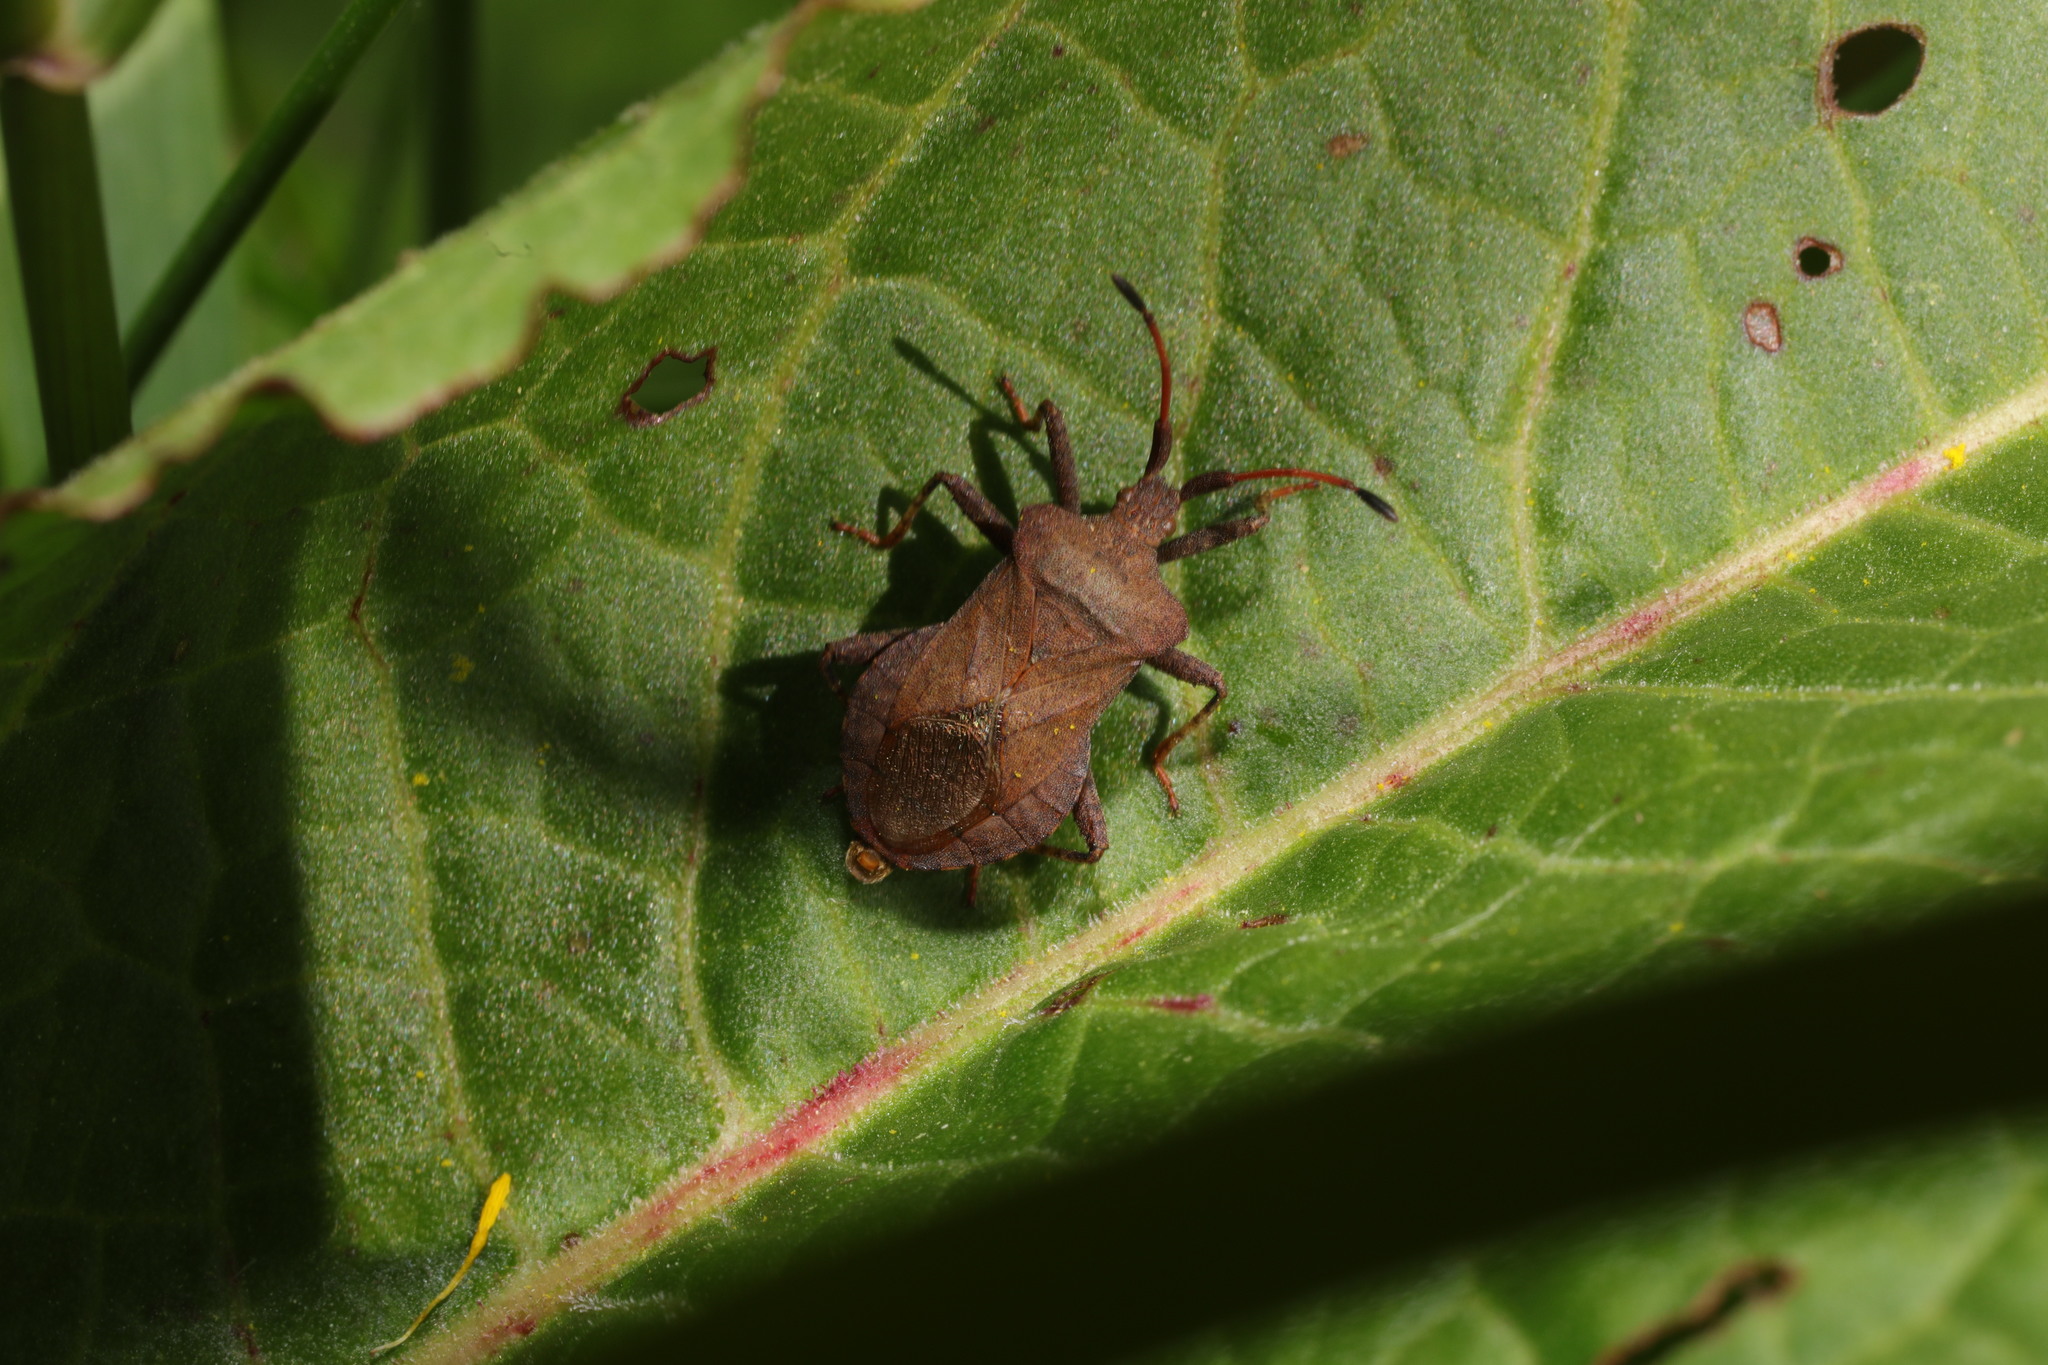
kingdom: Animalia
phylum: Arthropoda
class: Insecta
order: Hemiptera
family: Coreidae
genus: Coreus
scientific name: Coreus marginatus
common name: Dock bug
